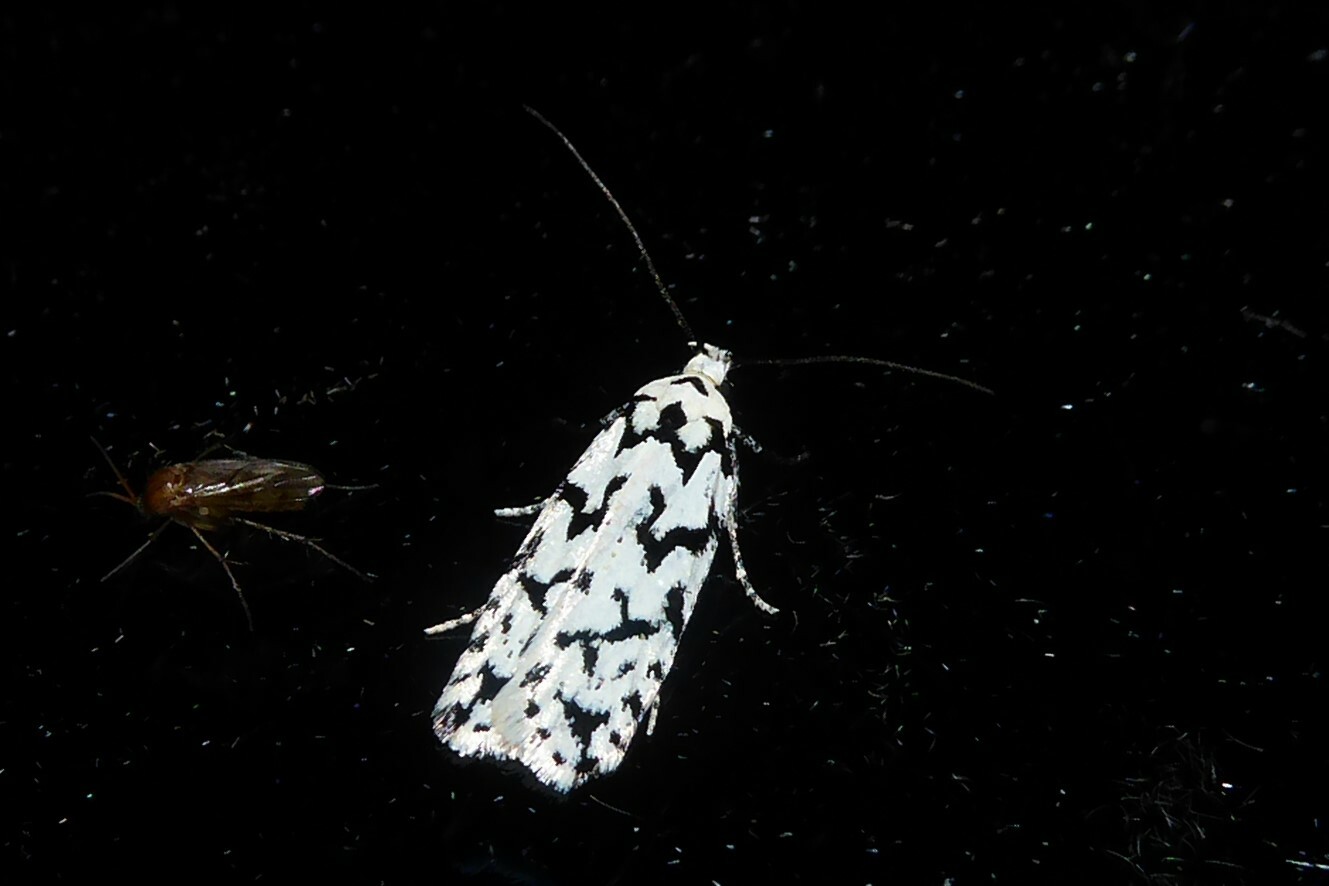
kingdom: Animalia
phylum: Arthropoda
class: Insecta
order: Lepidoptera
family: Oecophoridae
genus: Izatha
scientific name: Izatha katadiktya
